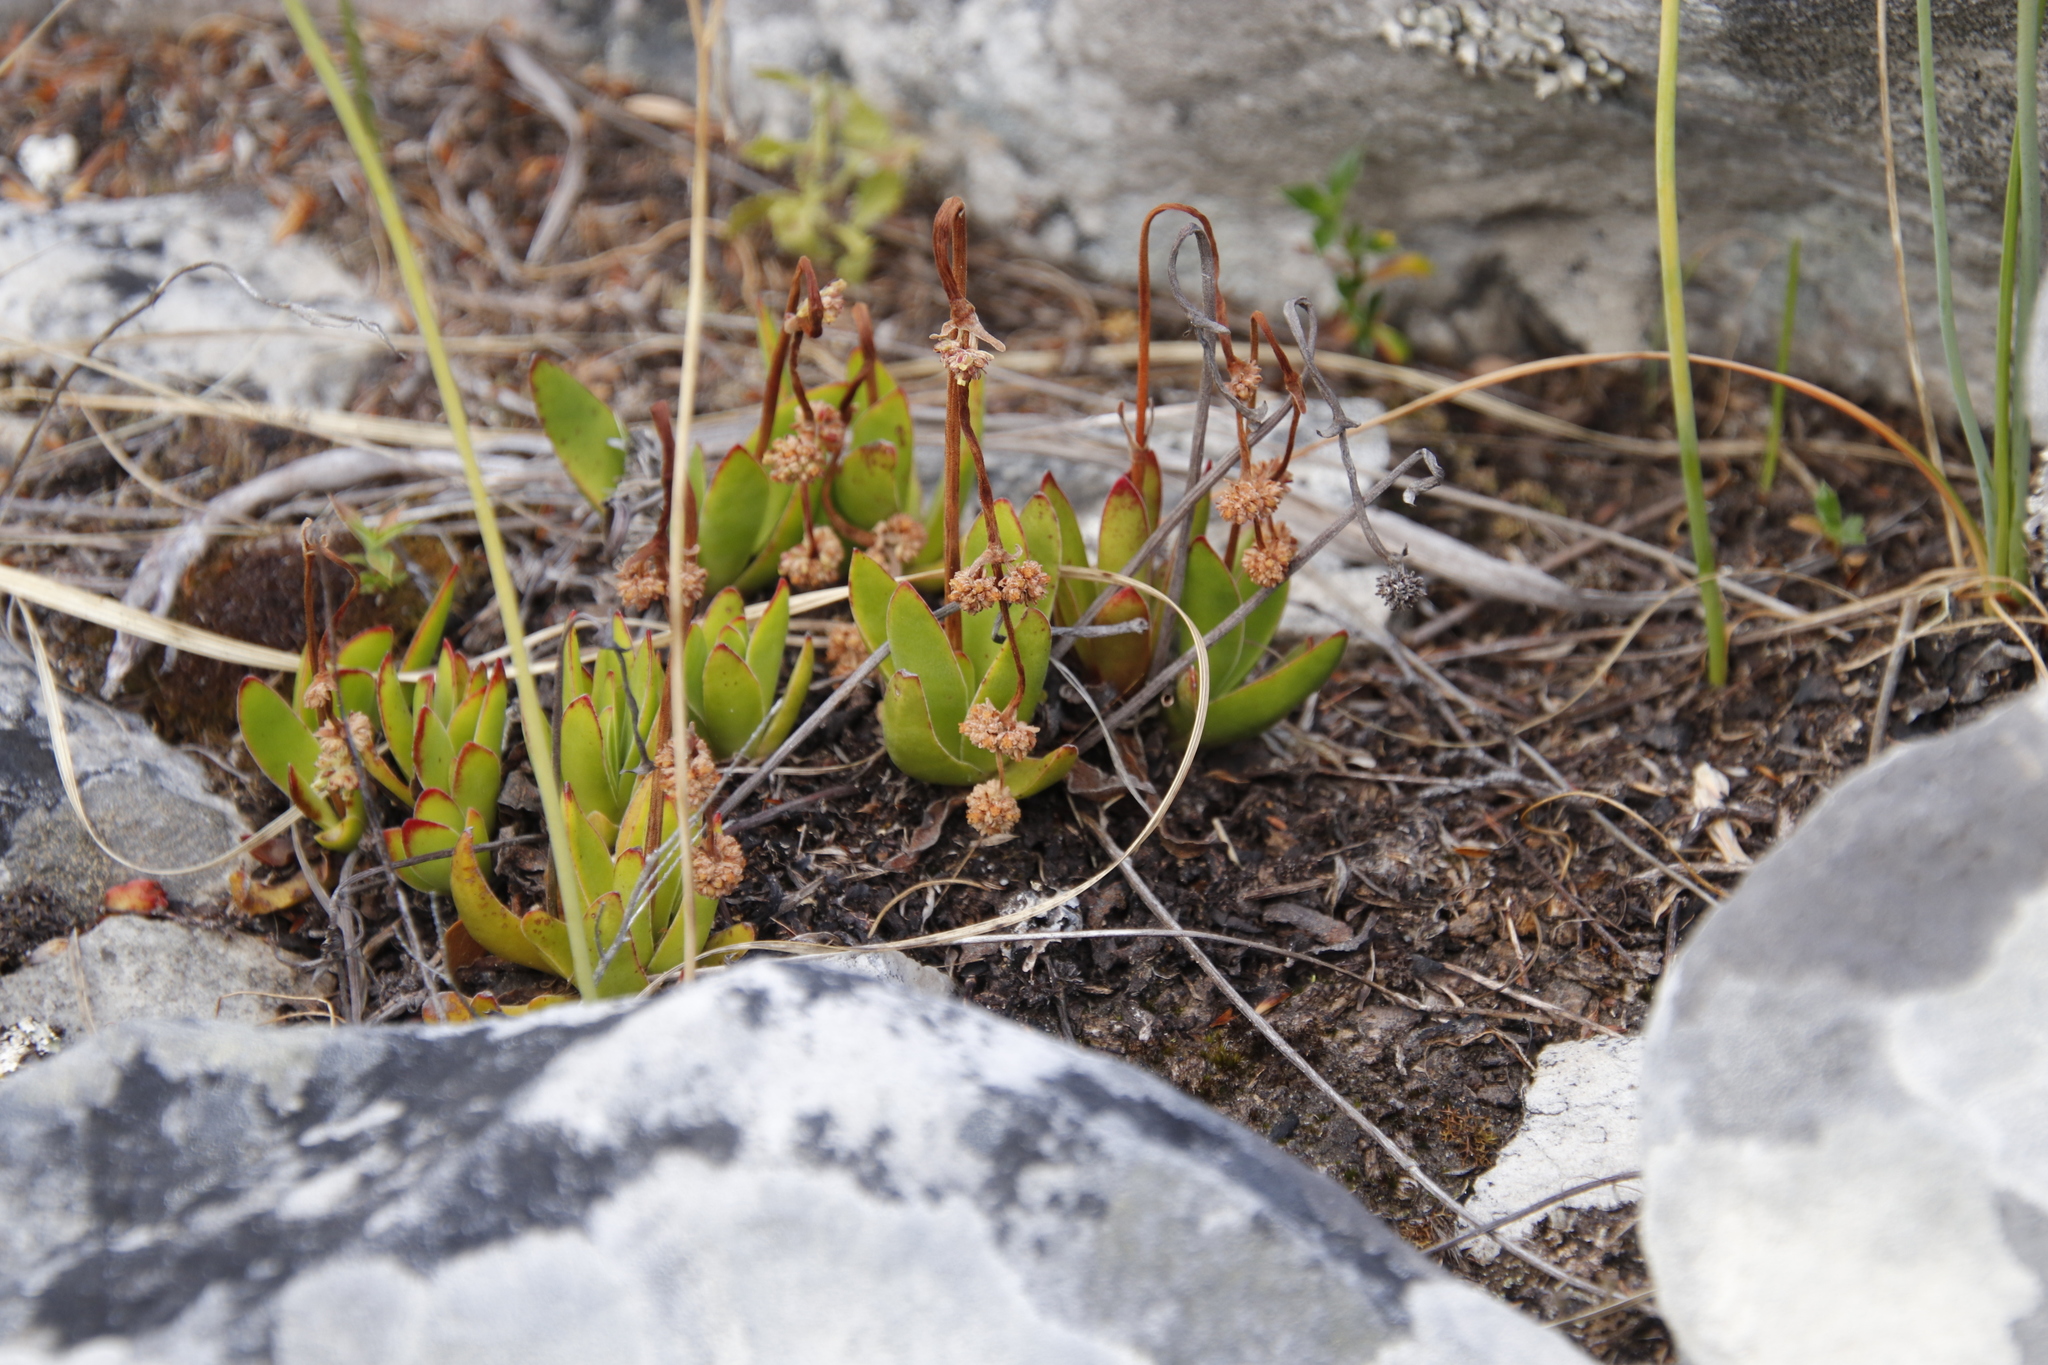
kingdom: Plantae
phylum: Tracheophyta
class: Magnoliopsida
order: Saxifragales
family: Crassulaceae
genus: Crassula
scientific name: Crassula nudicaulis
